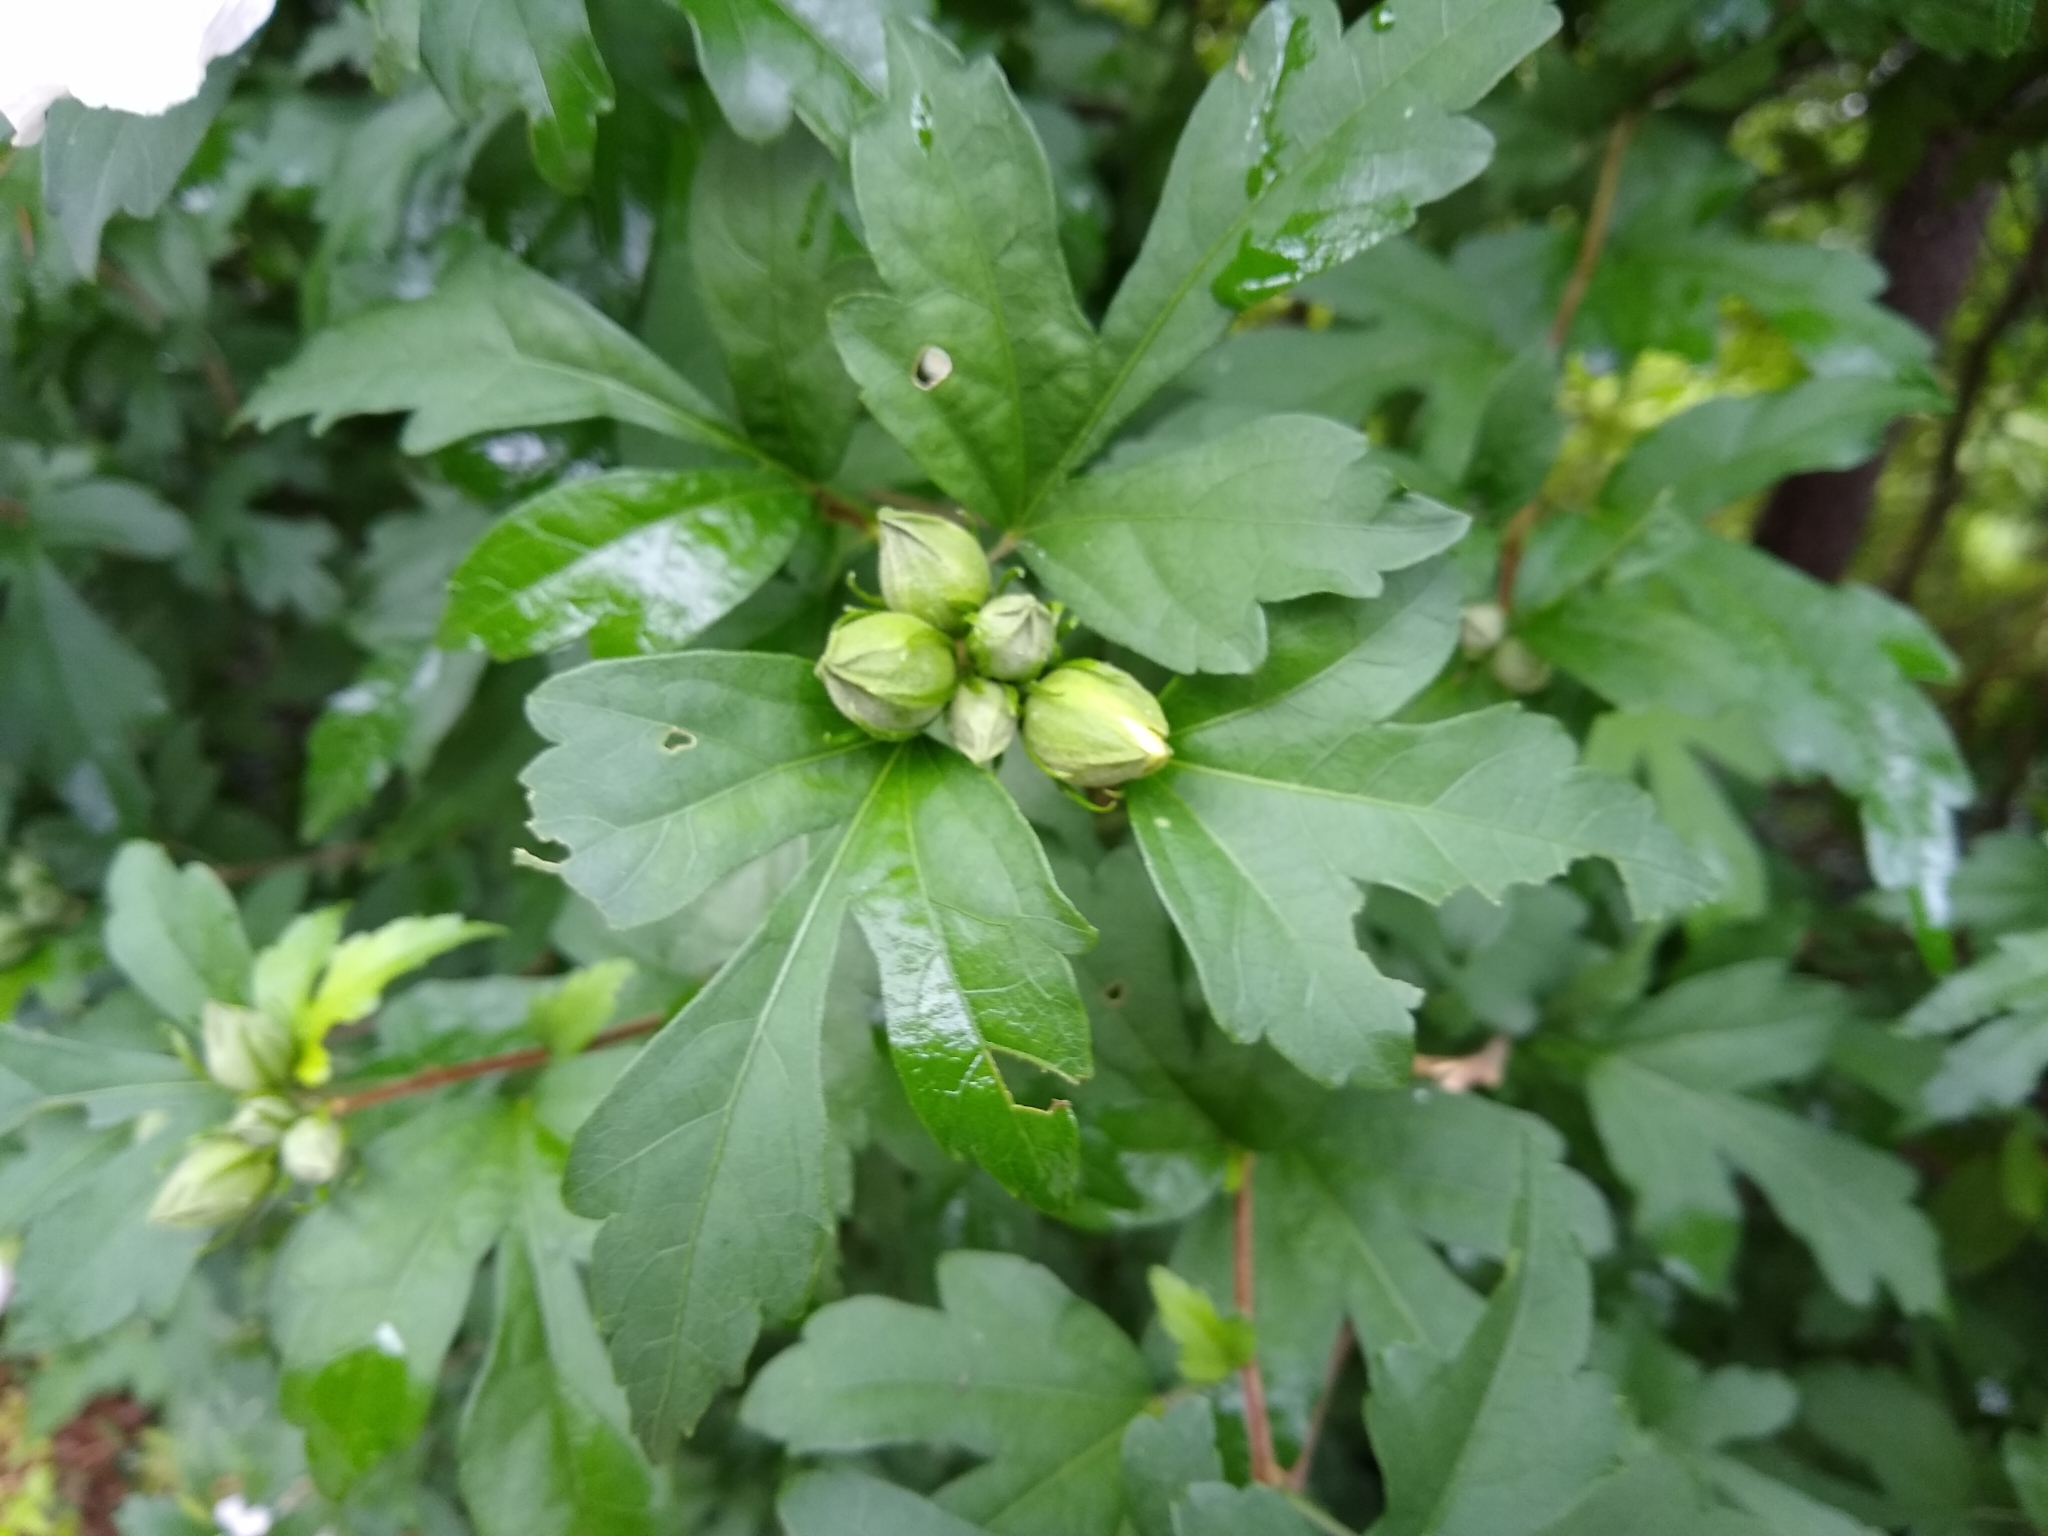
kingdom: Plantae
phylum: Tracheophyta
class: Magnoliopsida
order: Malvales
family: Malvaceae
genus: Hibiscus
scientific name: Hibiscus syriacus
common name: Syrian ketmia
